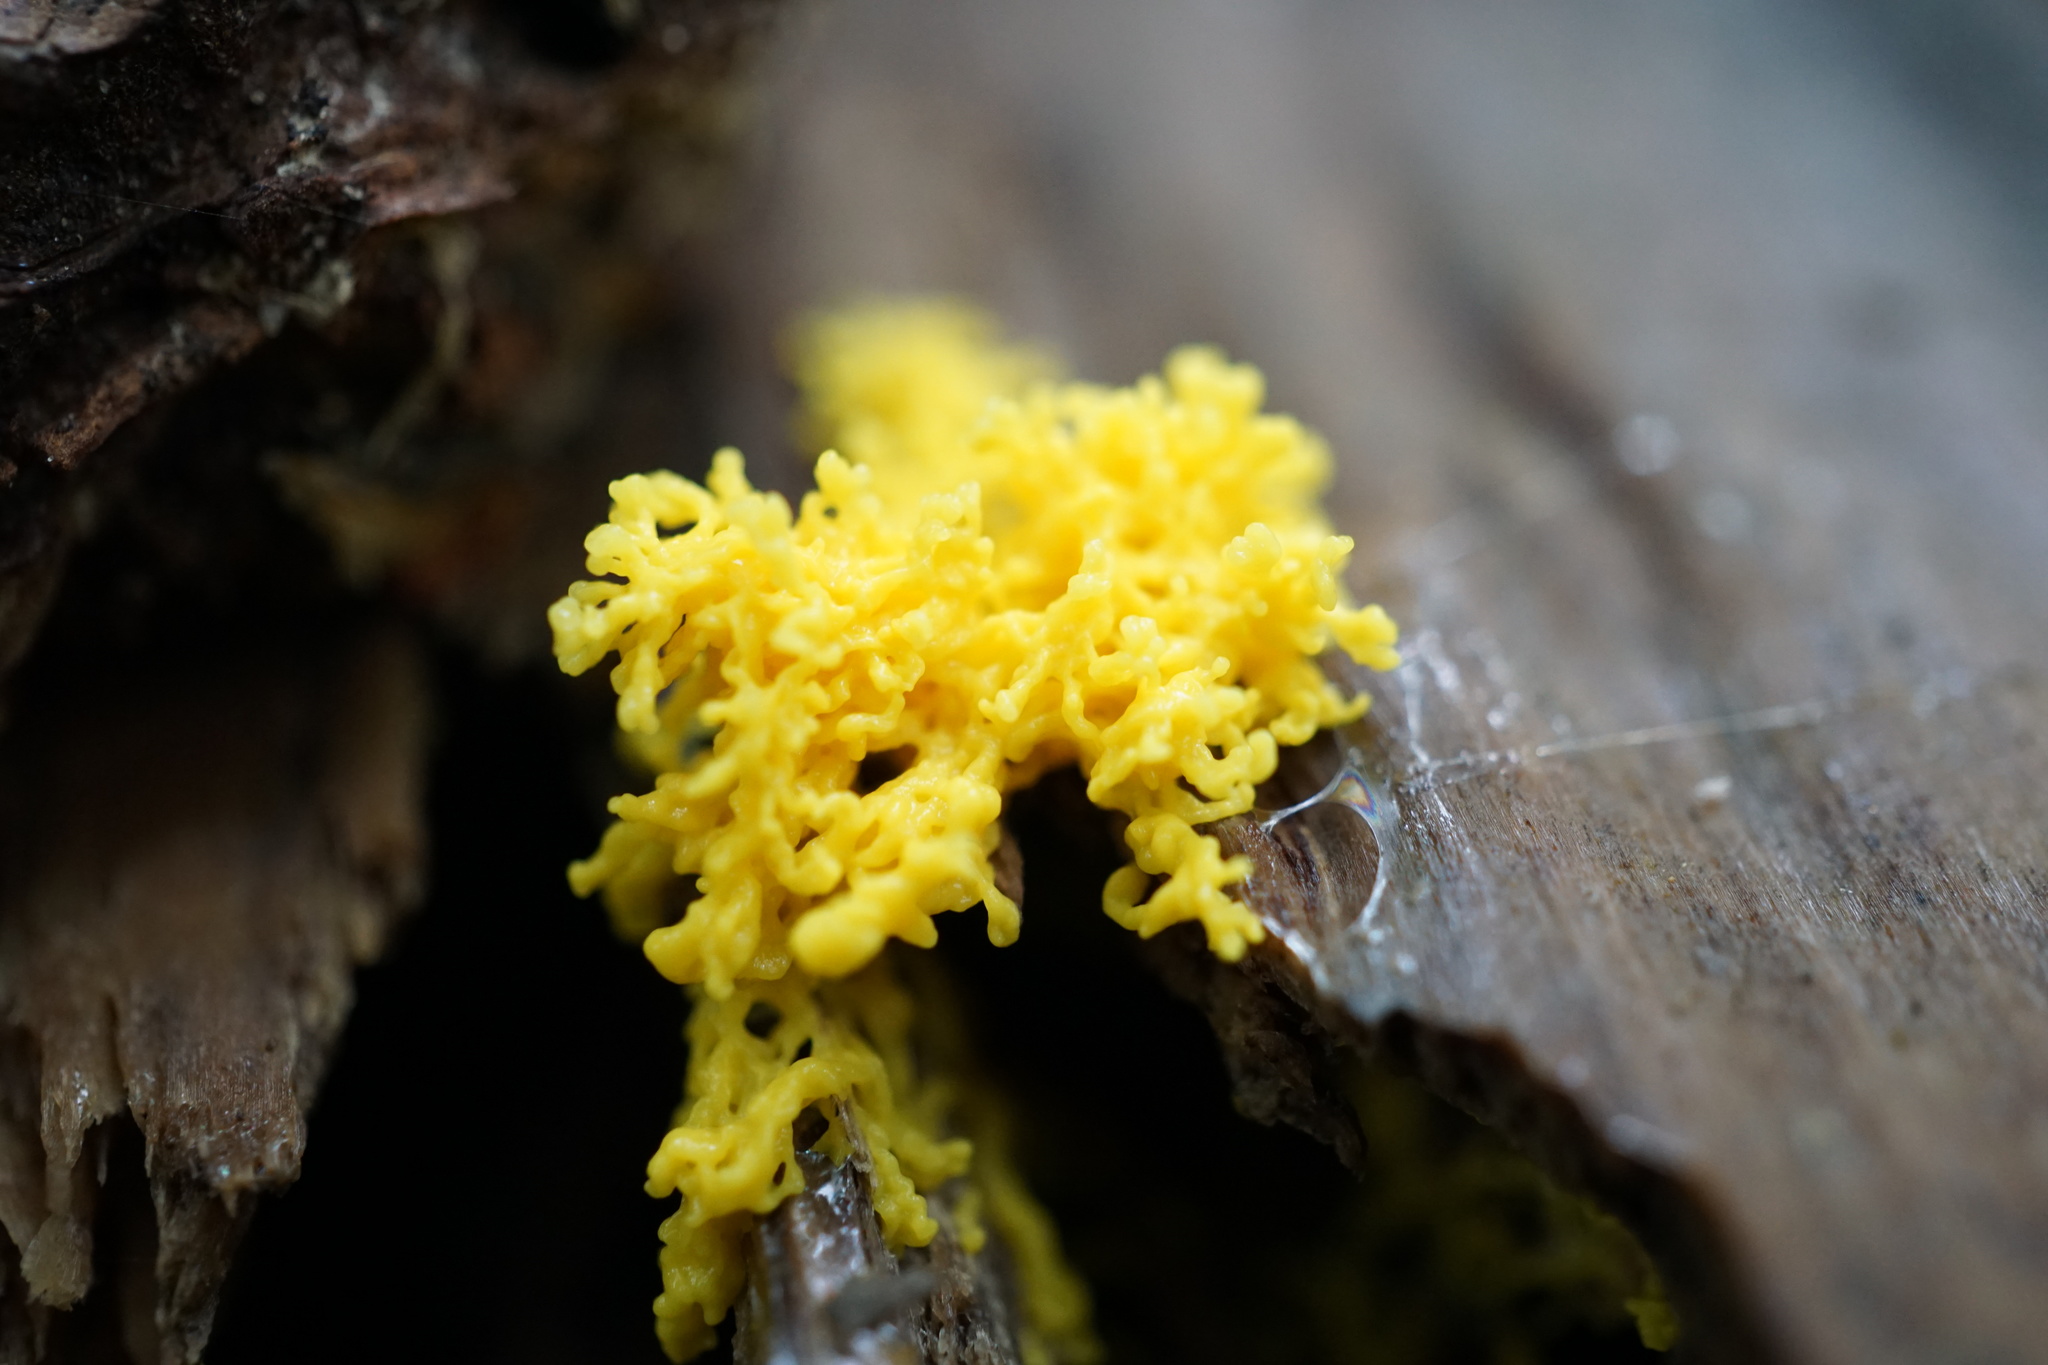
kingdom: Protozoa
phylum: Mycetozoa
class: Myxomycetes
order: Physarales
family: Physaraceae
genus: Fuligo
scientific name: Fuligo septica
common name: Dog vomit slime mold
